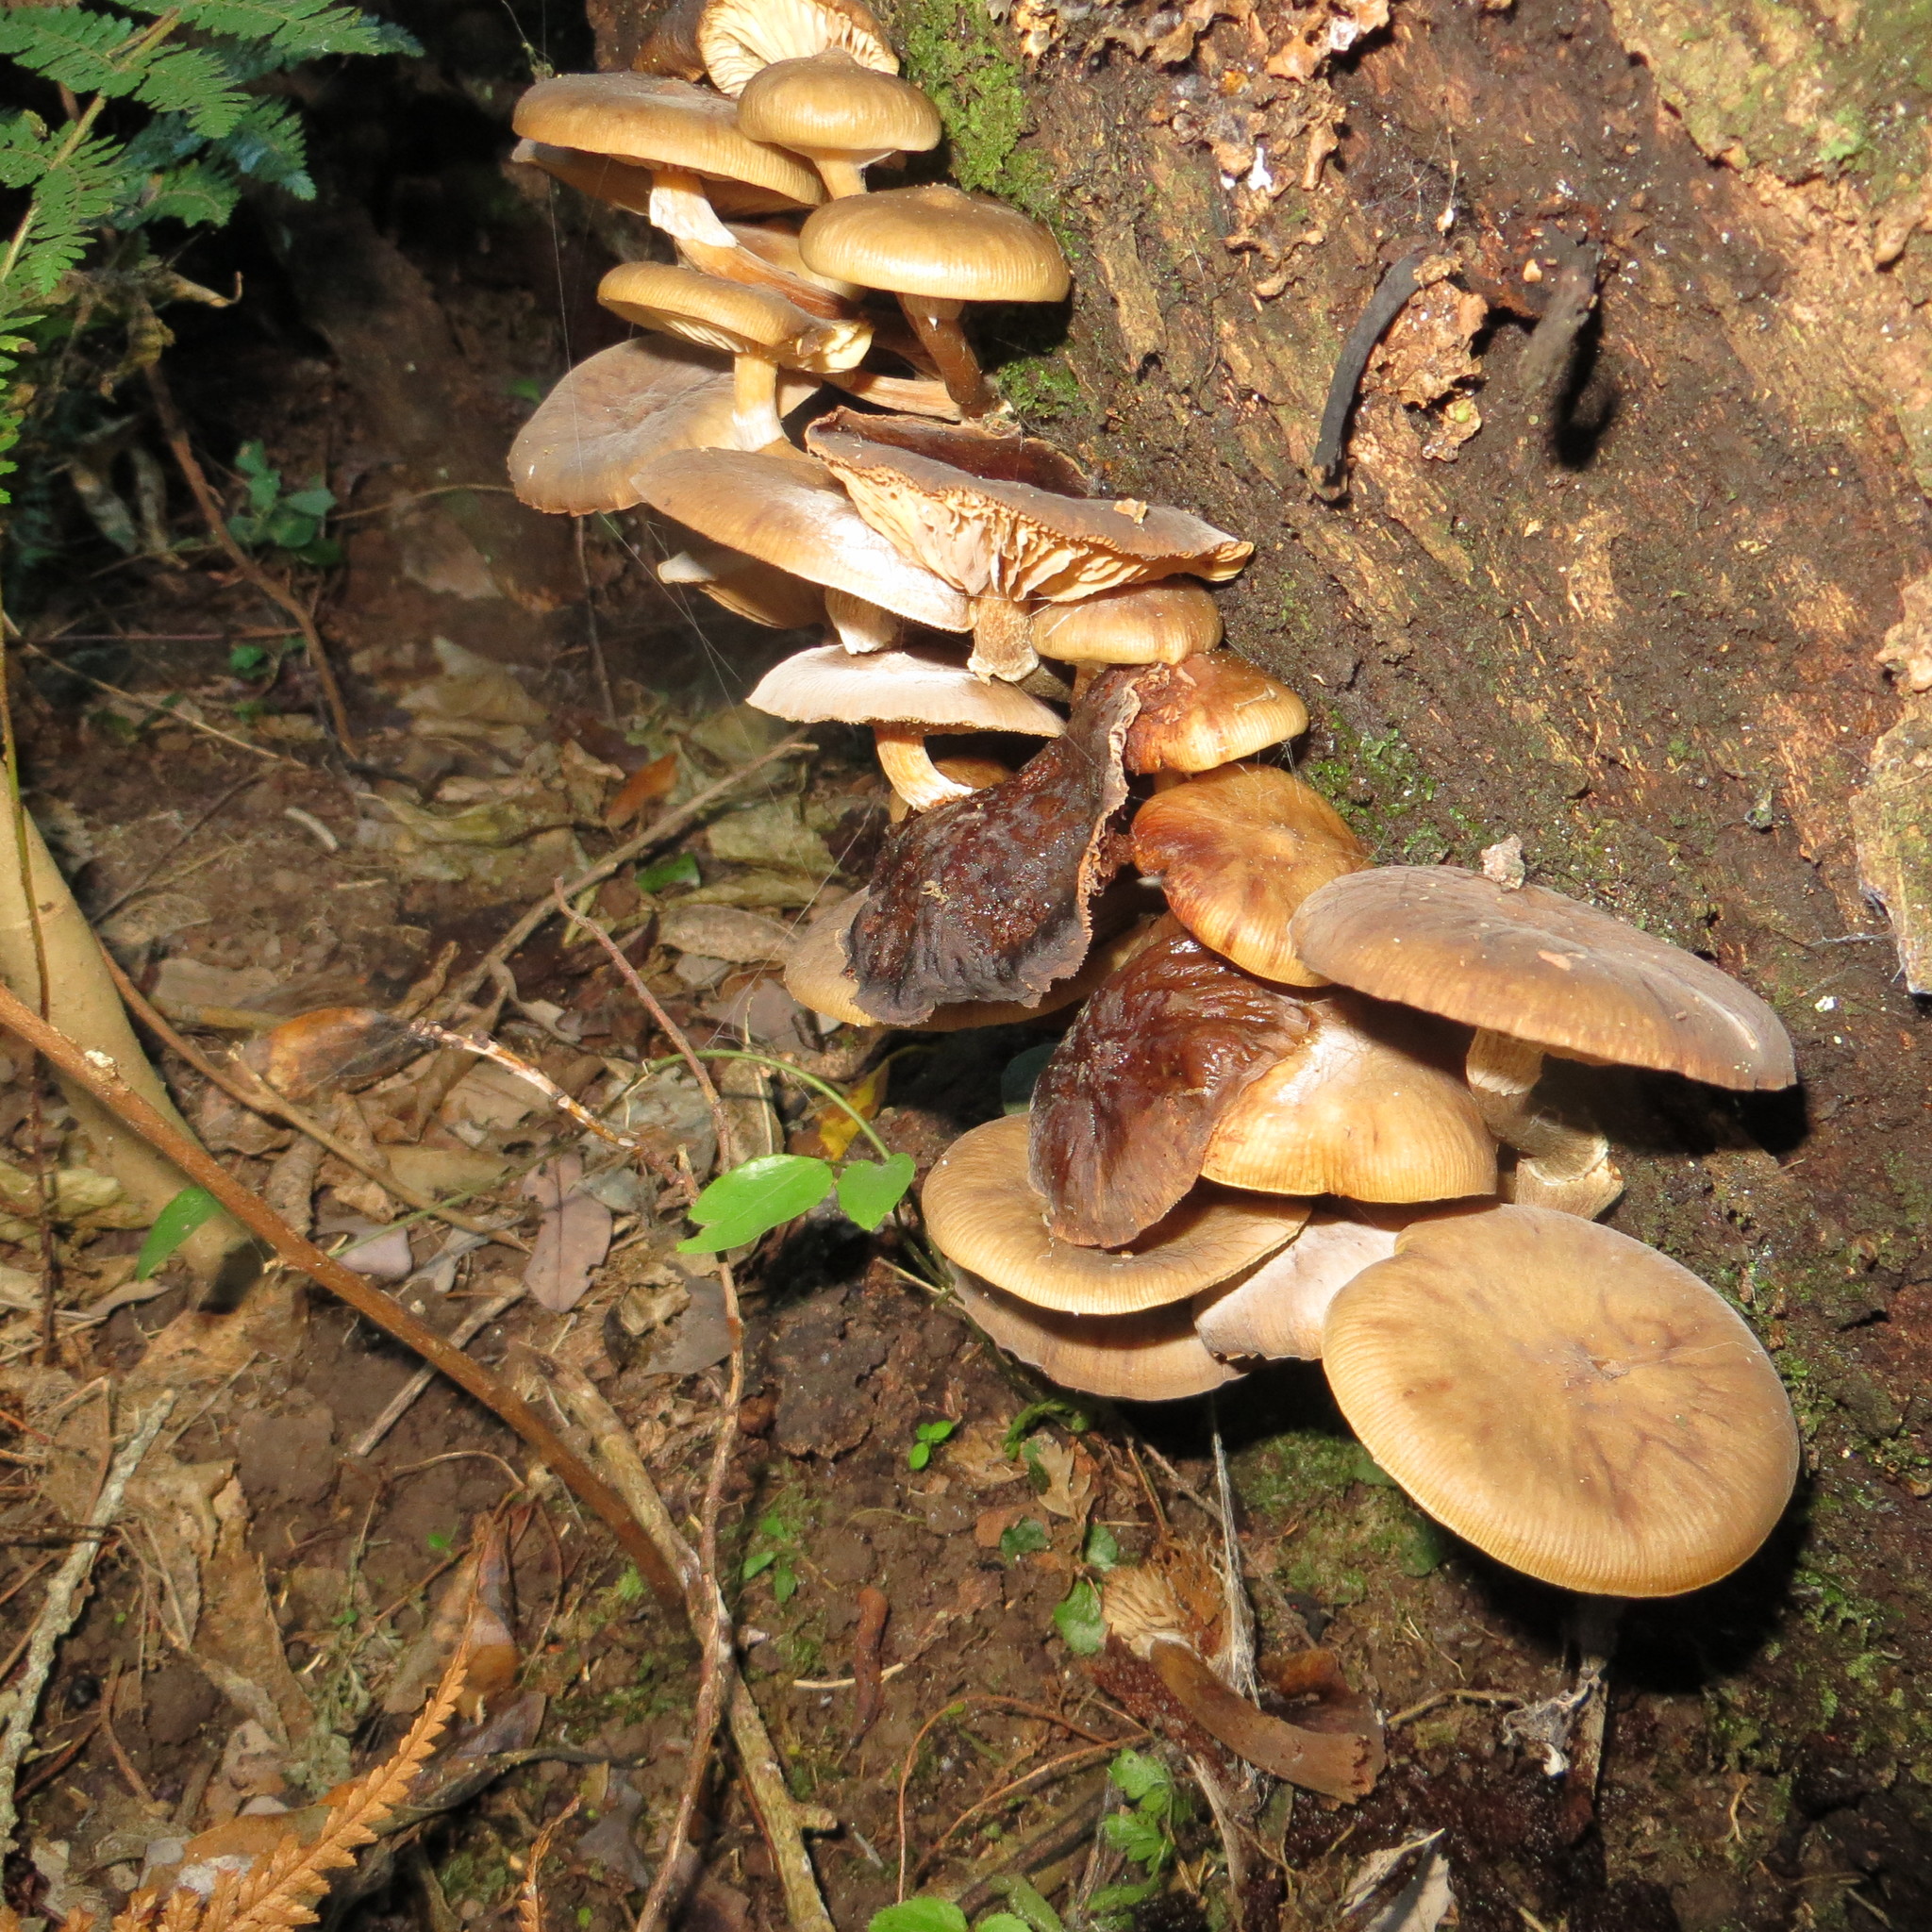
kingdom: Fungi
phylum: Basidiomycota
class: Agaricomycetes
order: Agaricales
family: Physalacriaceae
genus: Armillaria
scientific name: Armillaria novae-zelandiae
